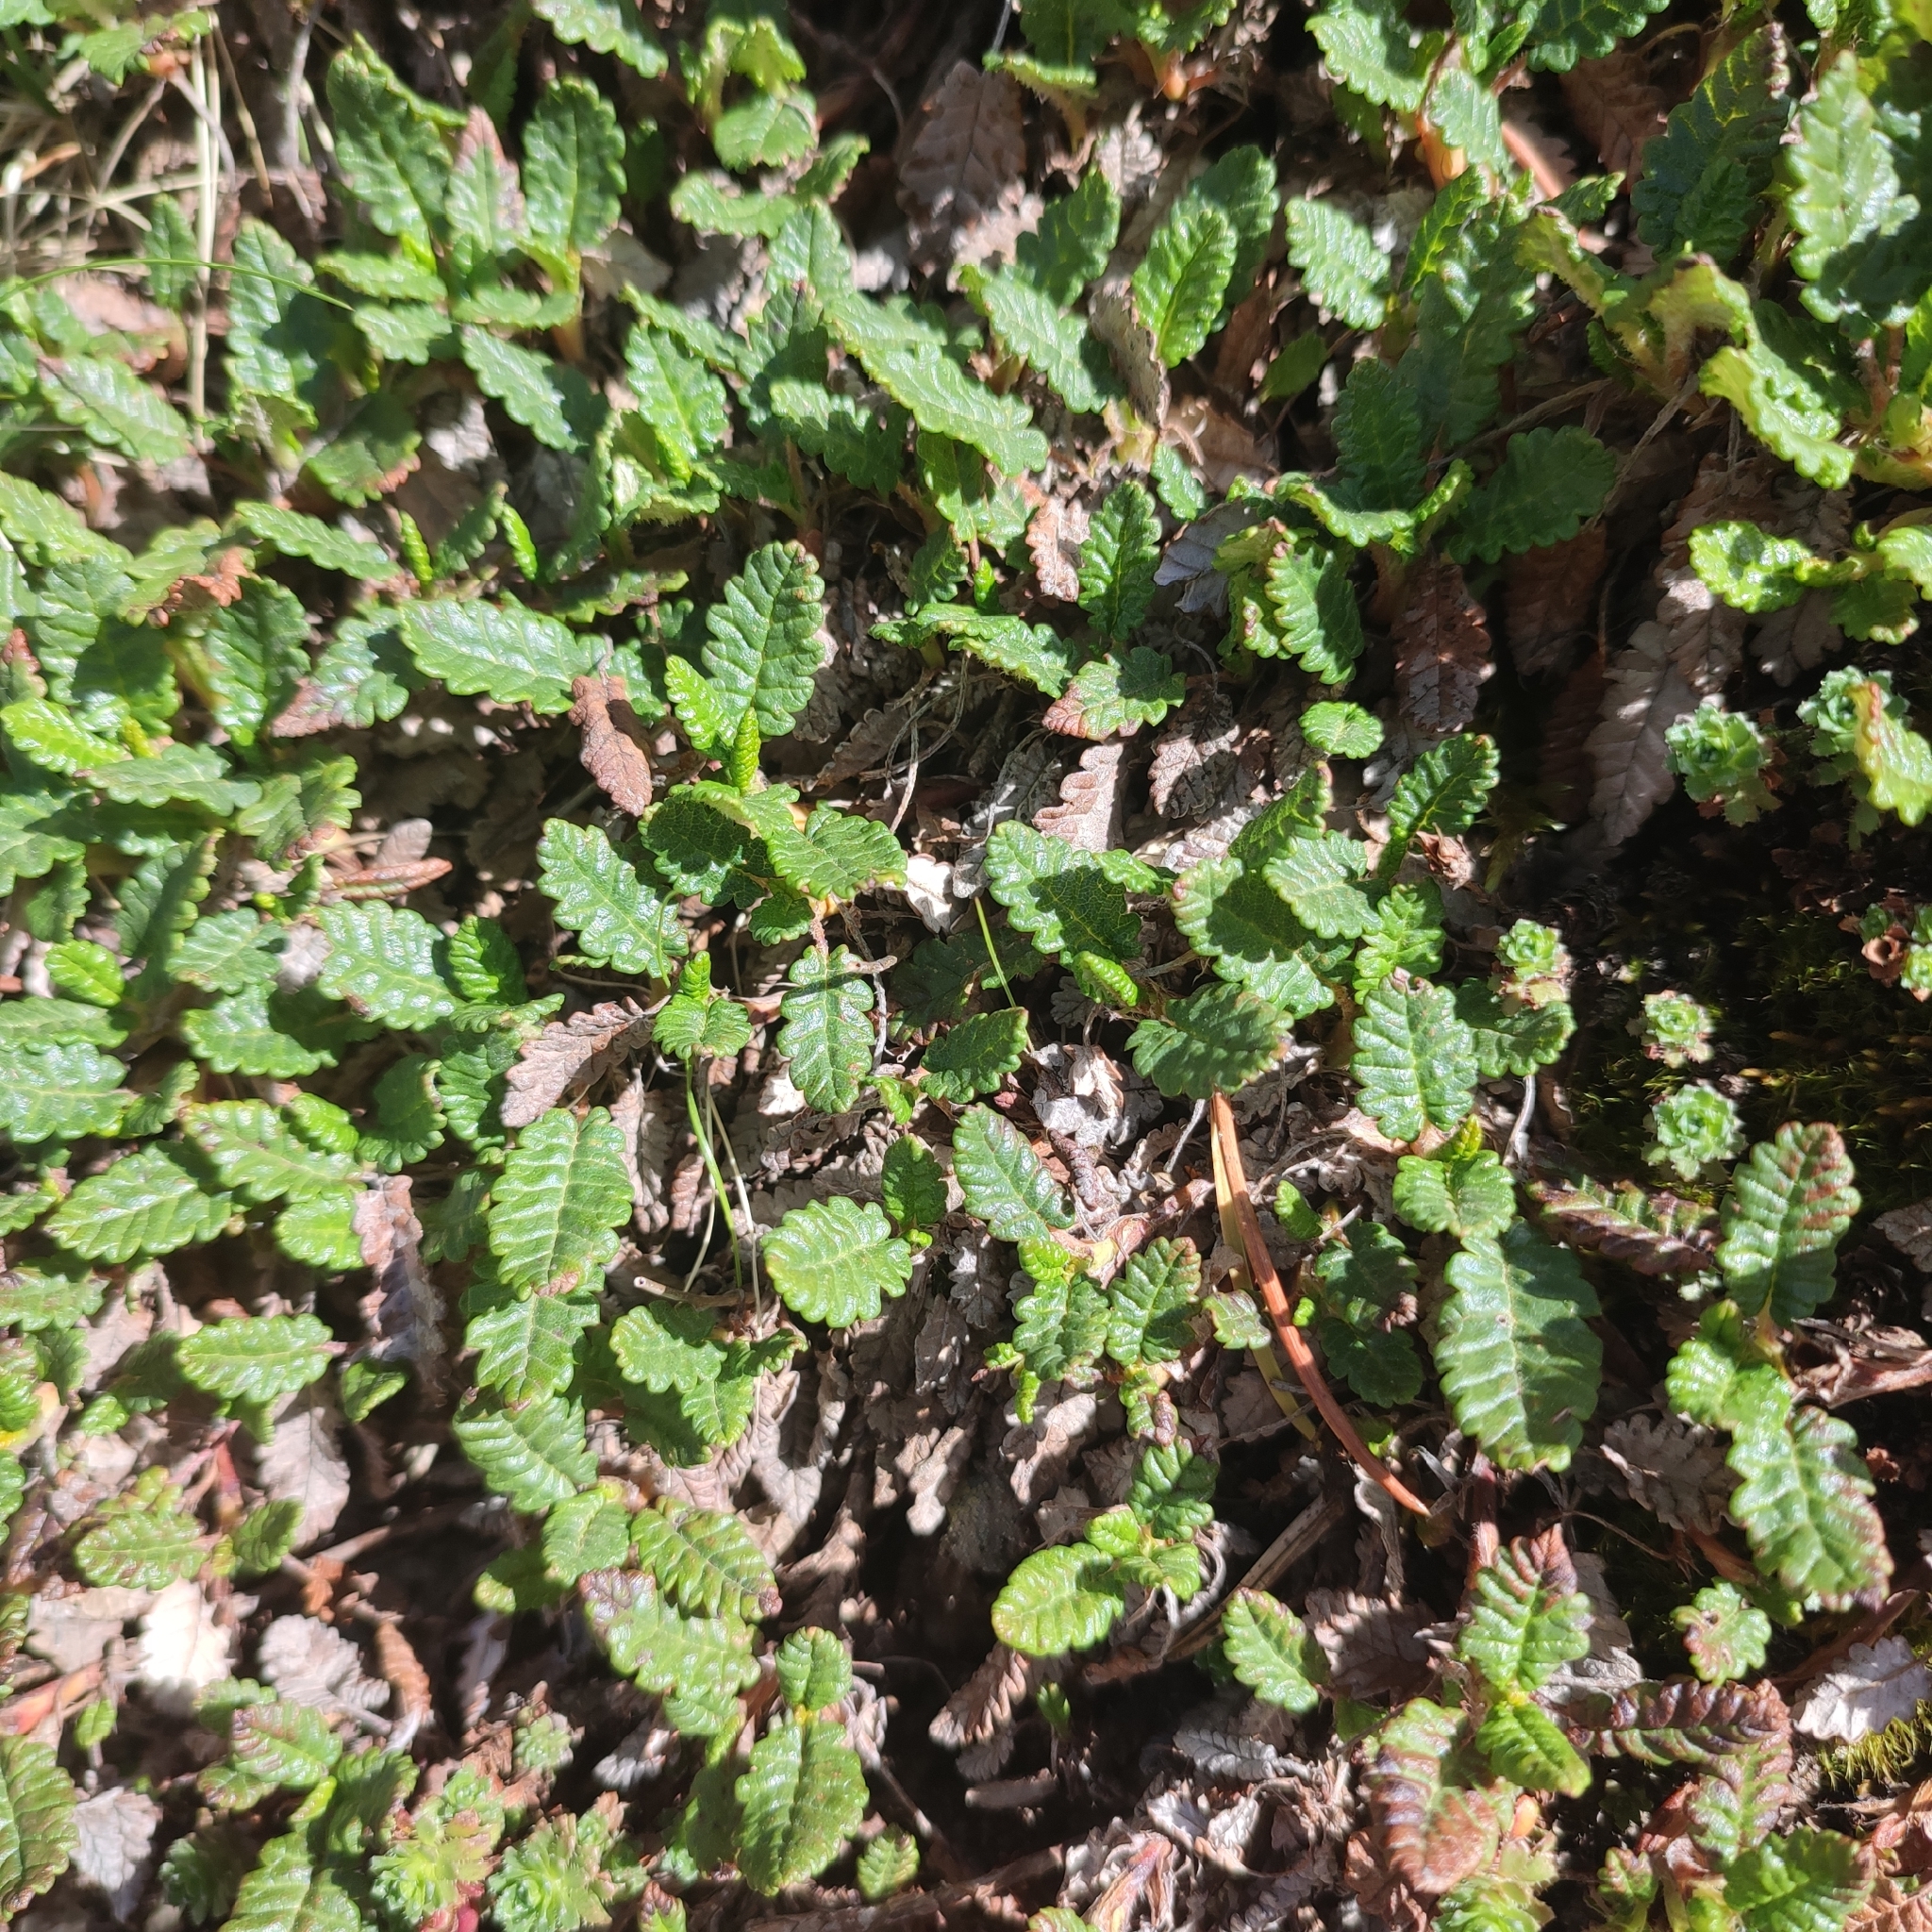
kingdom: Plantae
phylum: Tracheophyta
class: Magnoliopsida
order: Rosales
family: Rosaceae
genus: Dryas
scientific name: Dryas octopetala
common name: Eight-petal mountain-avens
